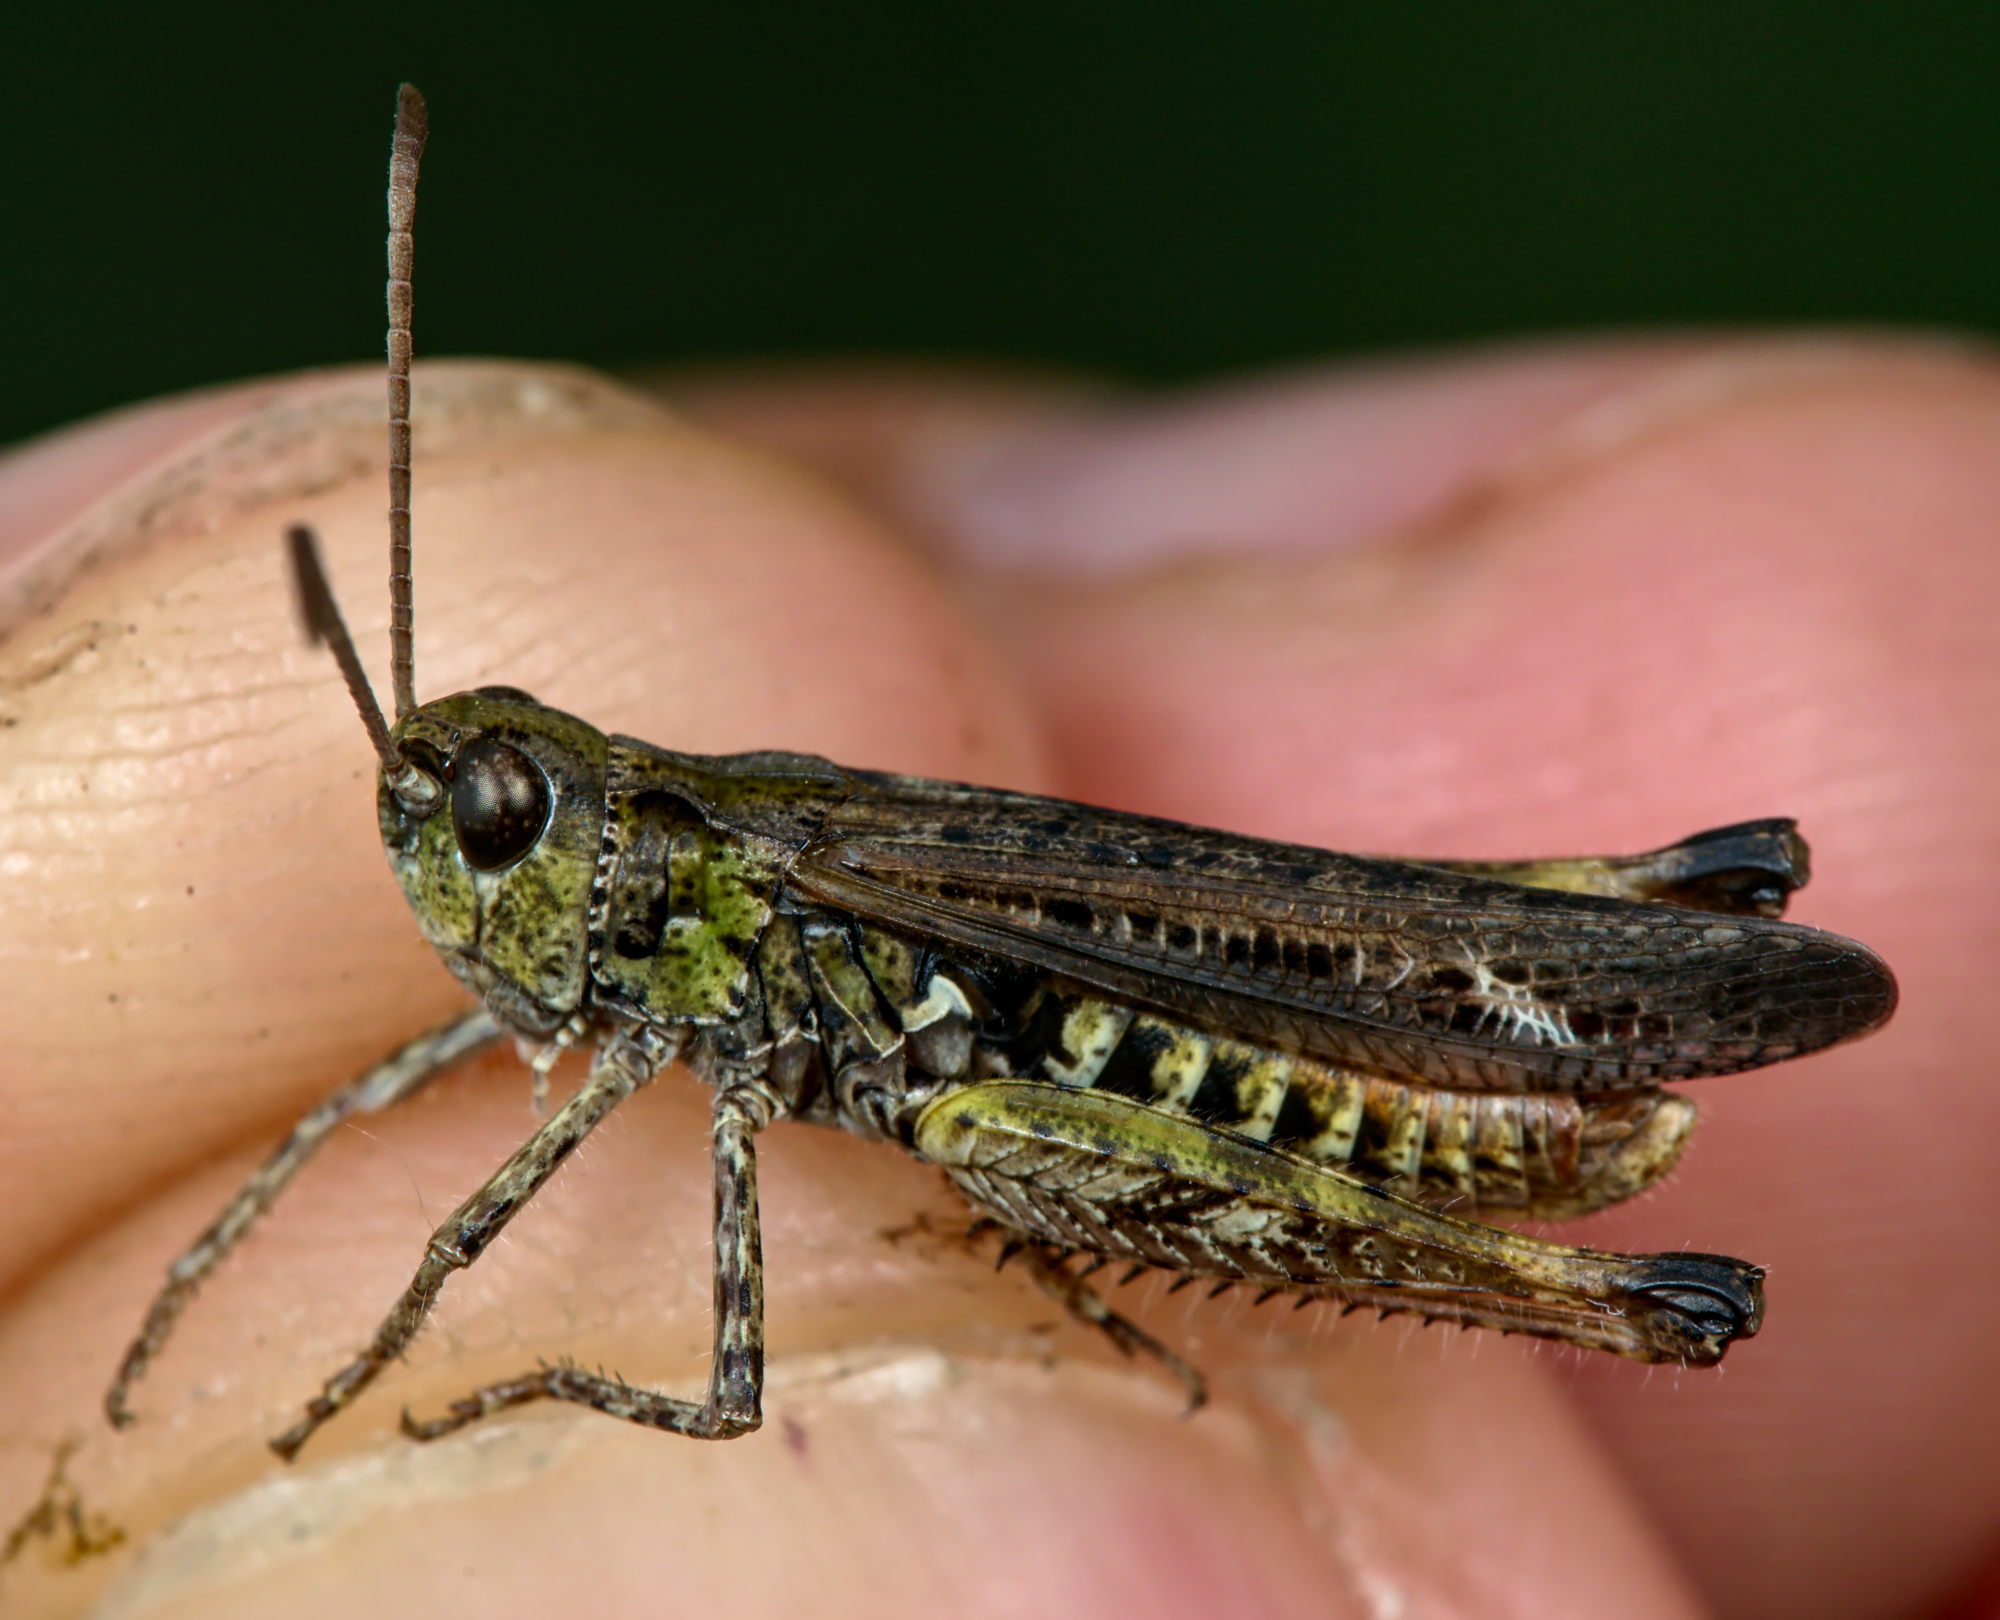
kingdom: Animalia
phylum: Arthropoda
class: Insecta
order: Orthoptera
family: Acrididae
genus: Myrmeleotettix
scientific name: Myrmeleotettix maculatus
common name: Mottled grasshopper
